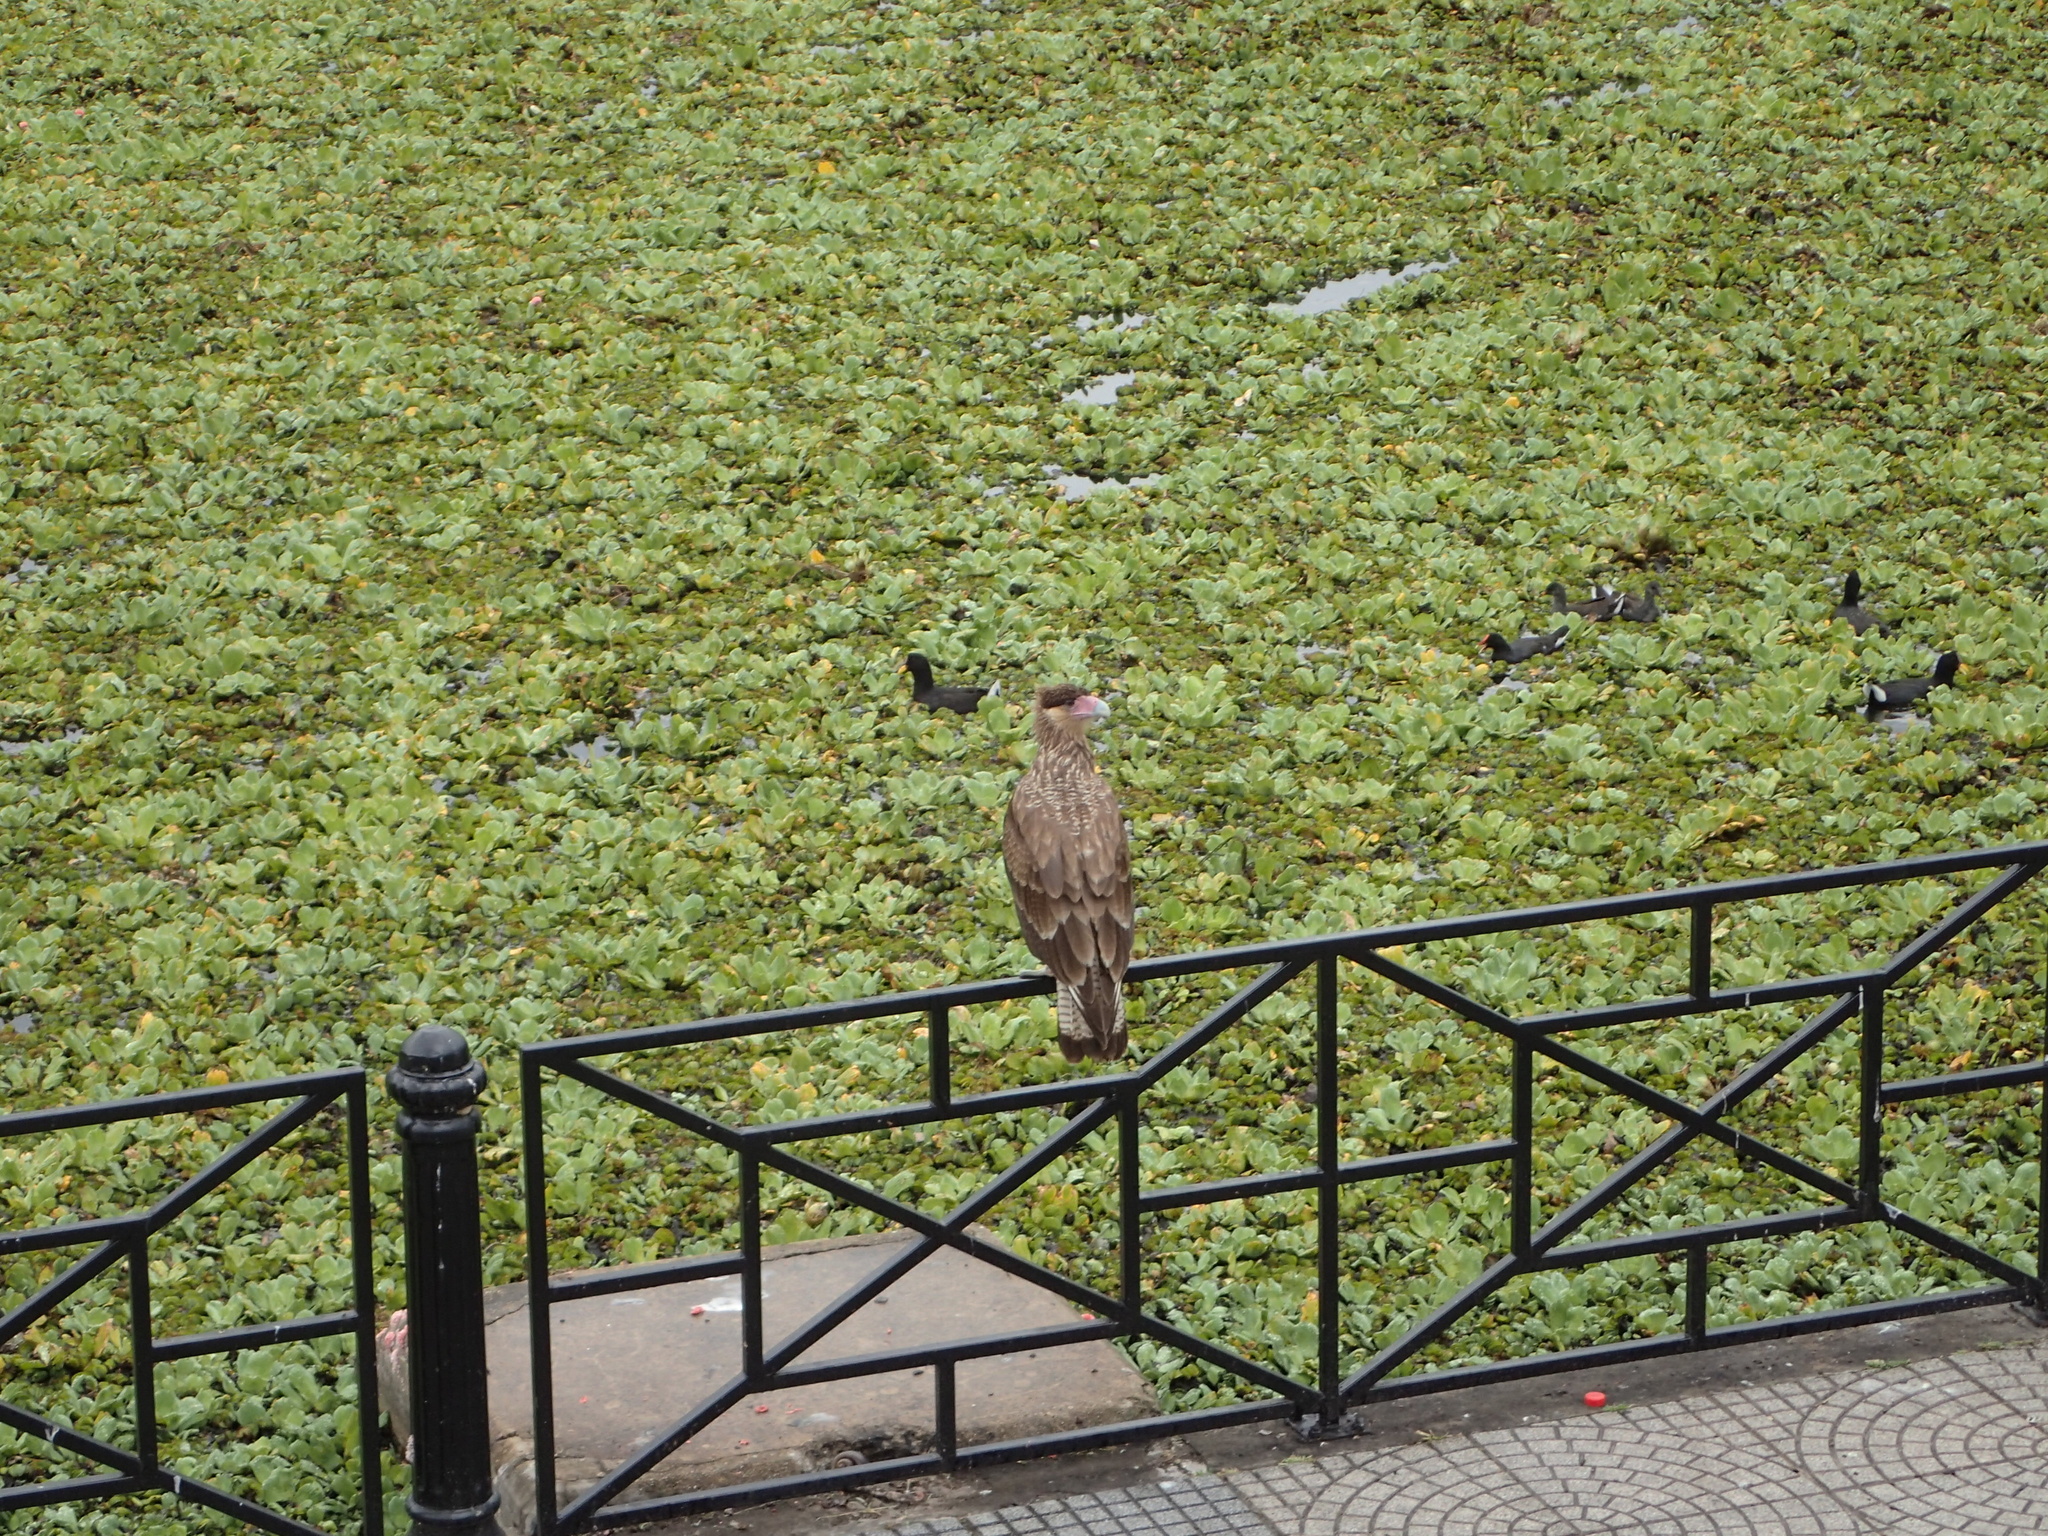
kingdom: Animalia
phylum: Chordata
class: Aves
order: Falconiformes
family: Falconidae
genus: Caracara
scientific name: Caracara plancus
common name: Southern caracara
